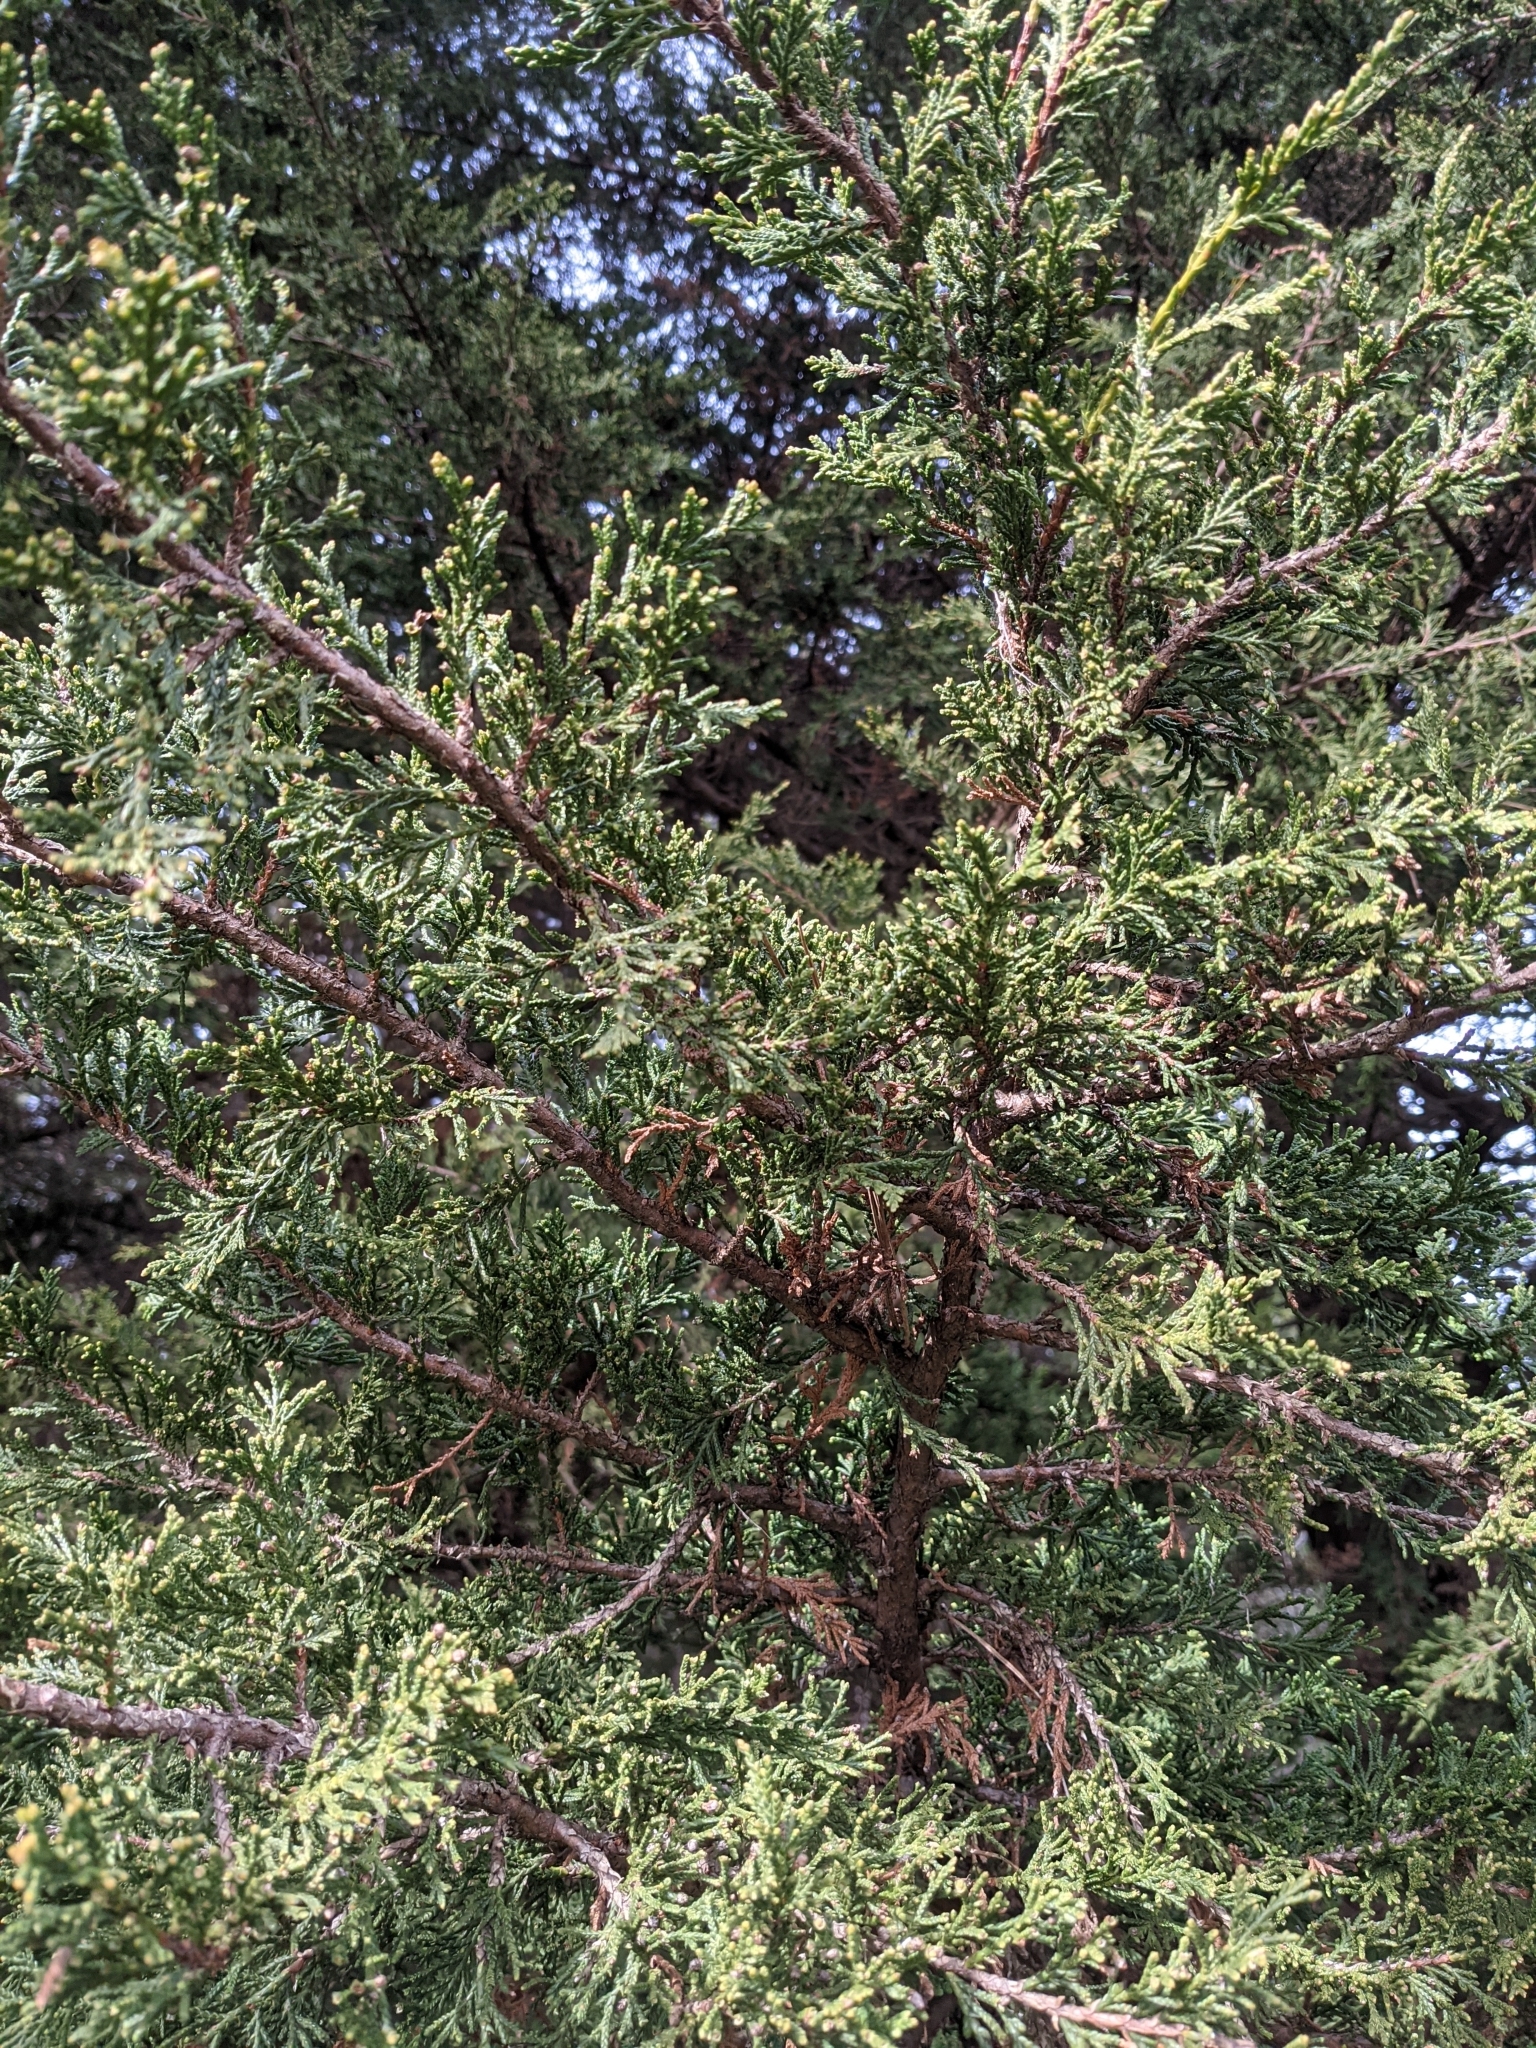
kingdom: Plantae
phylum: Tracheophyta
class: Pinopsida
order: Pinales
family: Cupressaceae
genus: Juniperus
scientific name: Juniperus scopulorum
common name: Rocky mountain juniper
